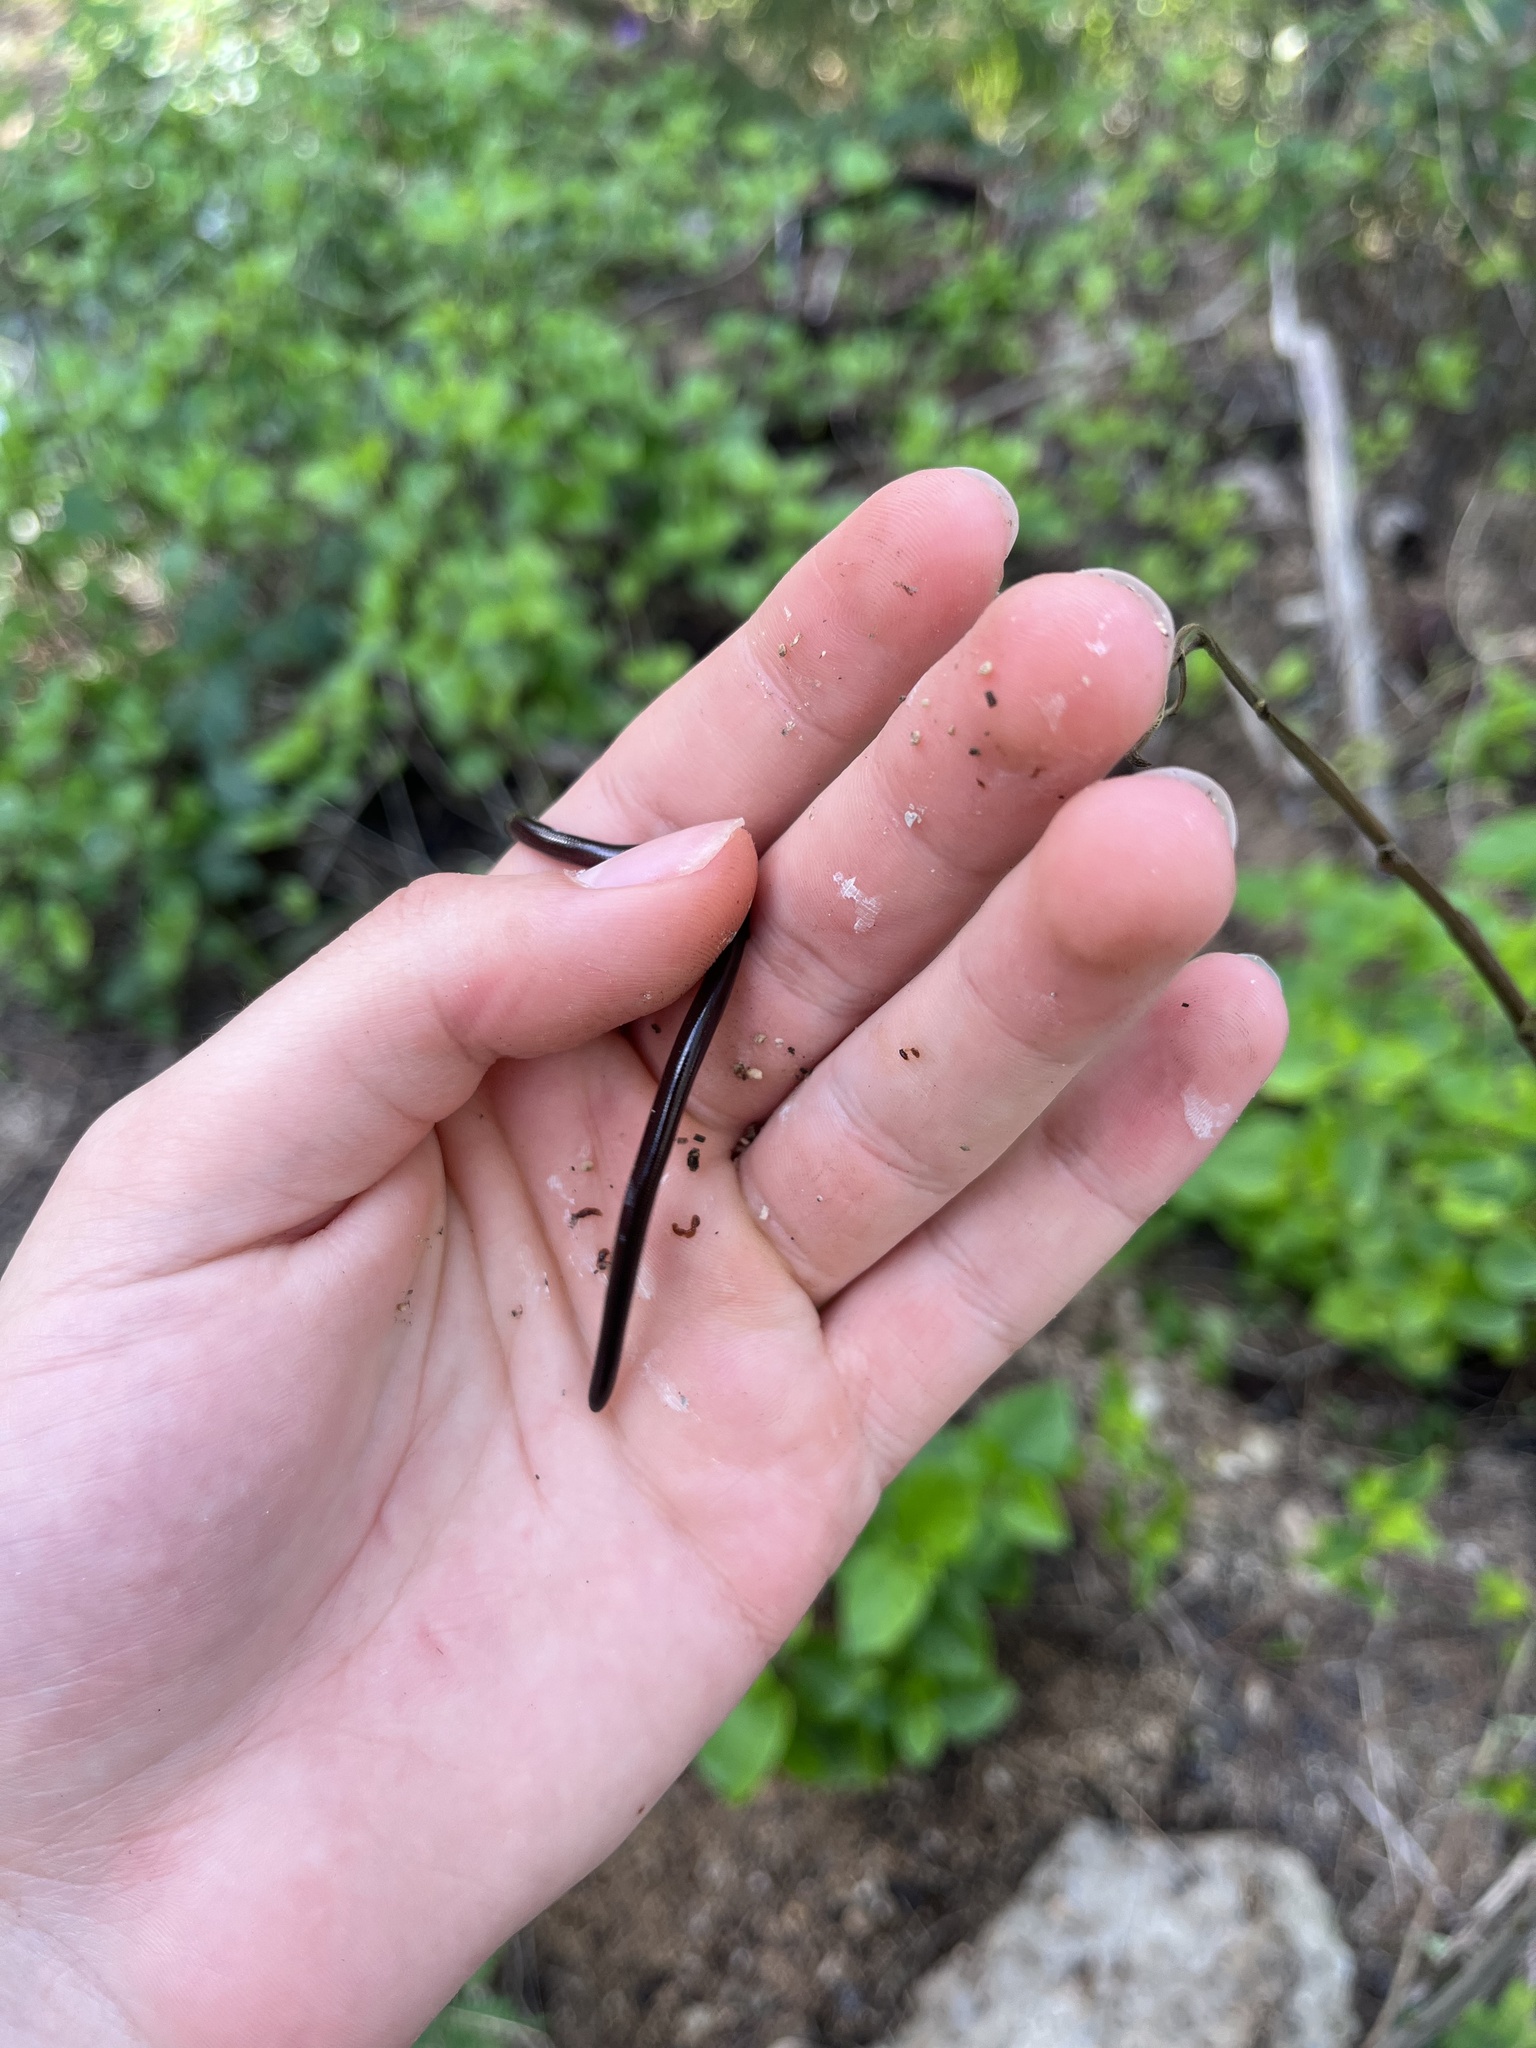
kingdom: Animalia
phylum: Chordata
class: Squamata
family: Typhlopidae
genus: Indotyphlops
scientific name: Indotyphlops braminus
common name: Brahminy blindsnake
